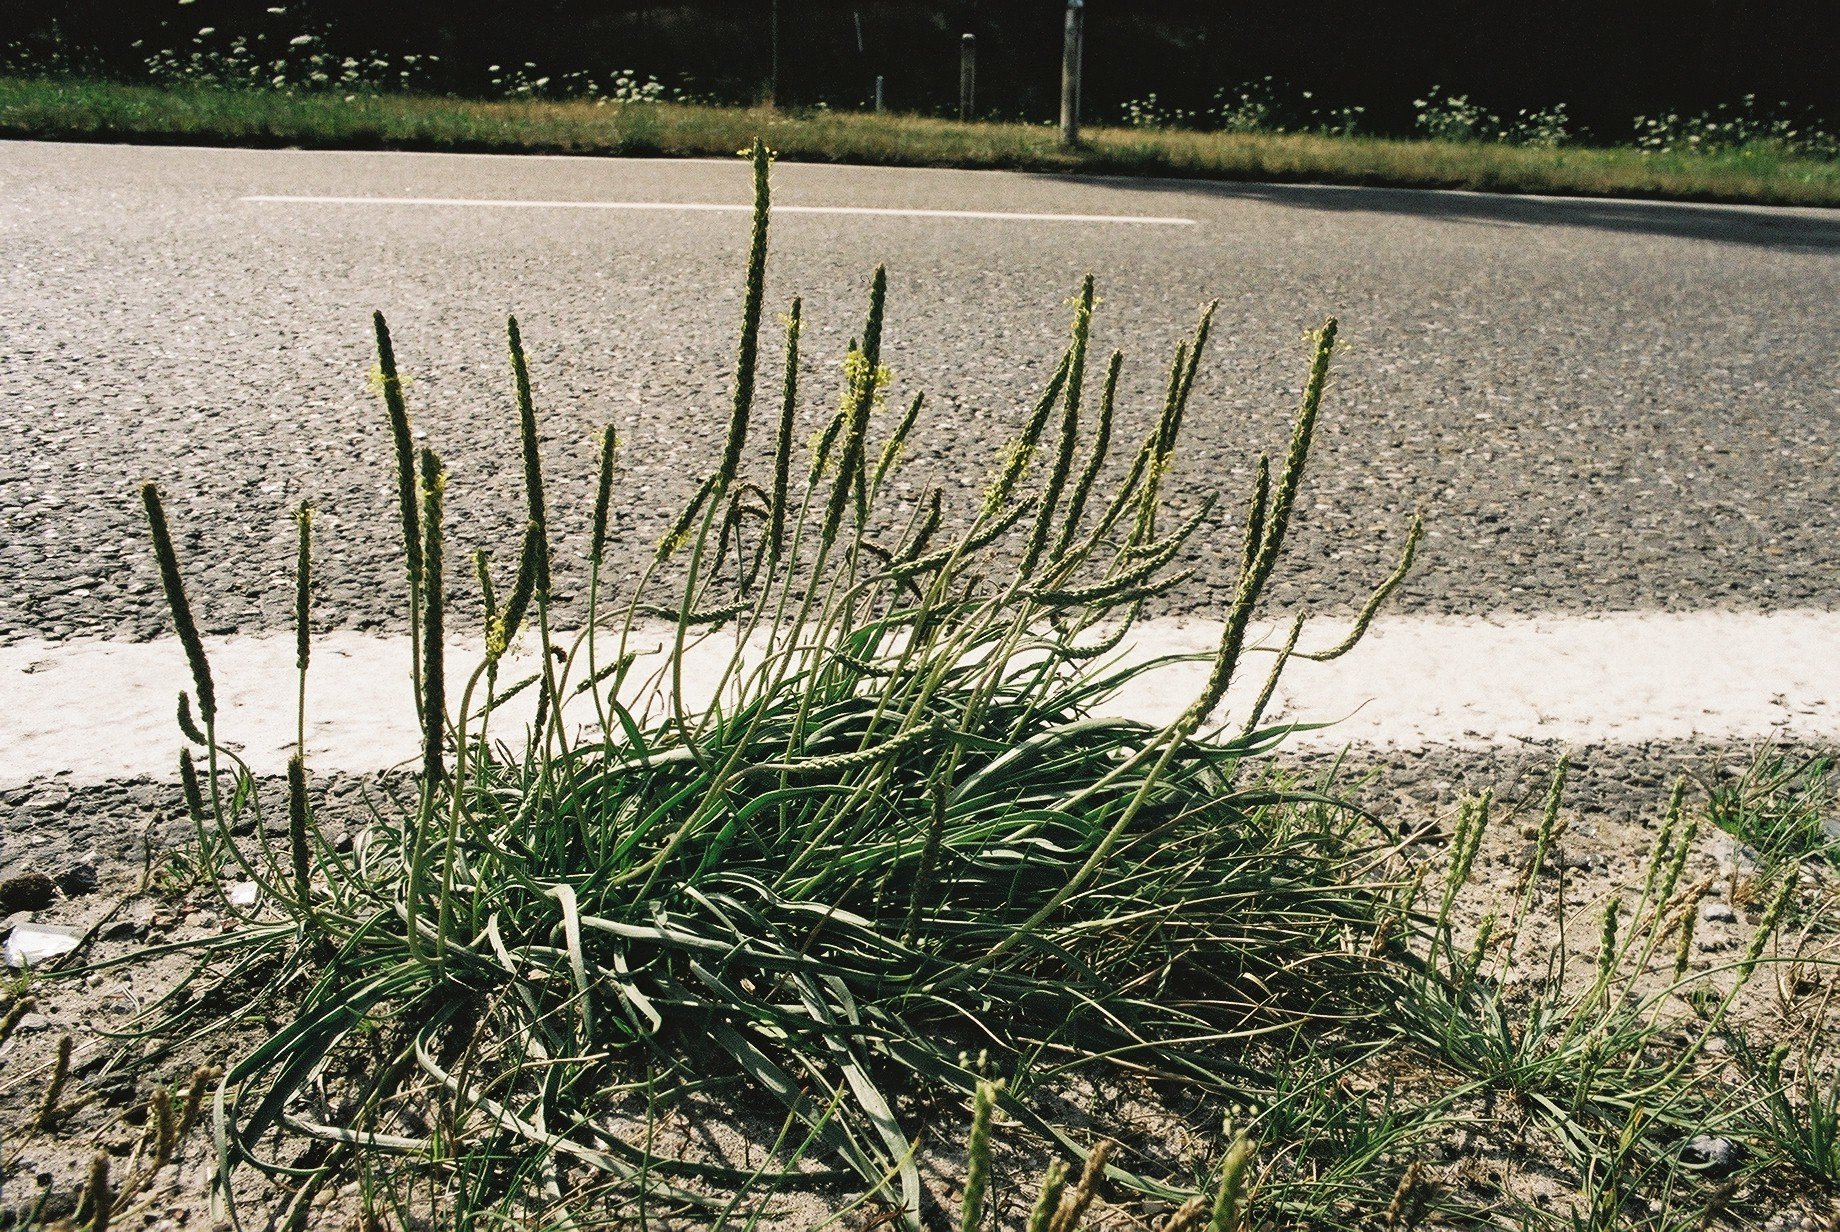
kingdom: Plantae
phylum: Tracheophyta
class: Magnoliopsida
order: Lamiales
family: Plantaginaceae
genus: Plantago
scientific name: Plantago maritima
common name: Sea plantain
